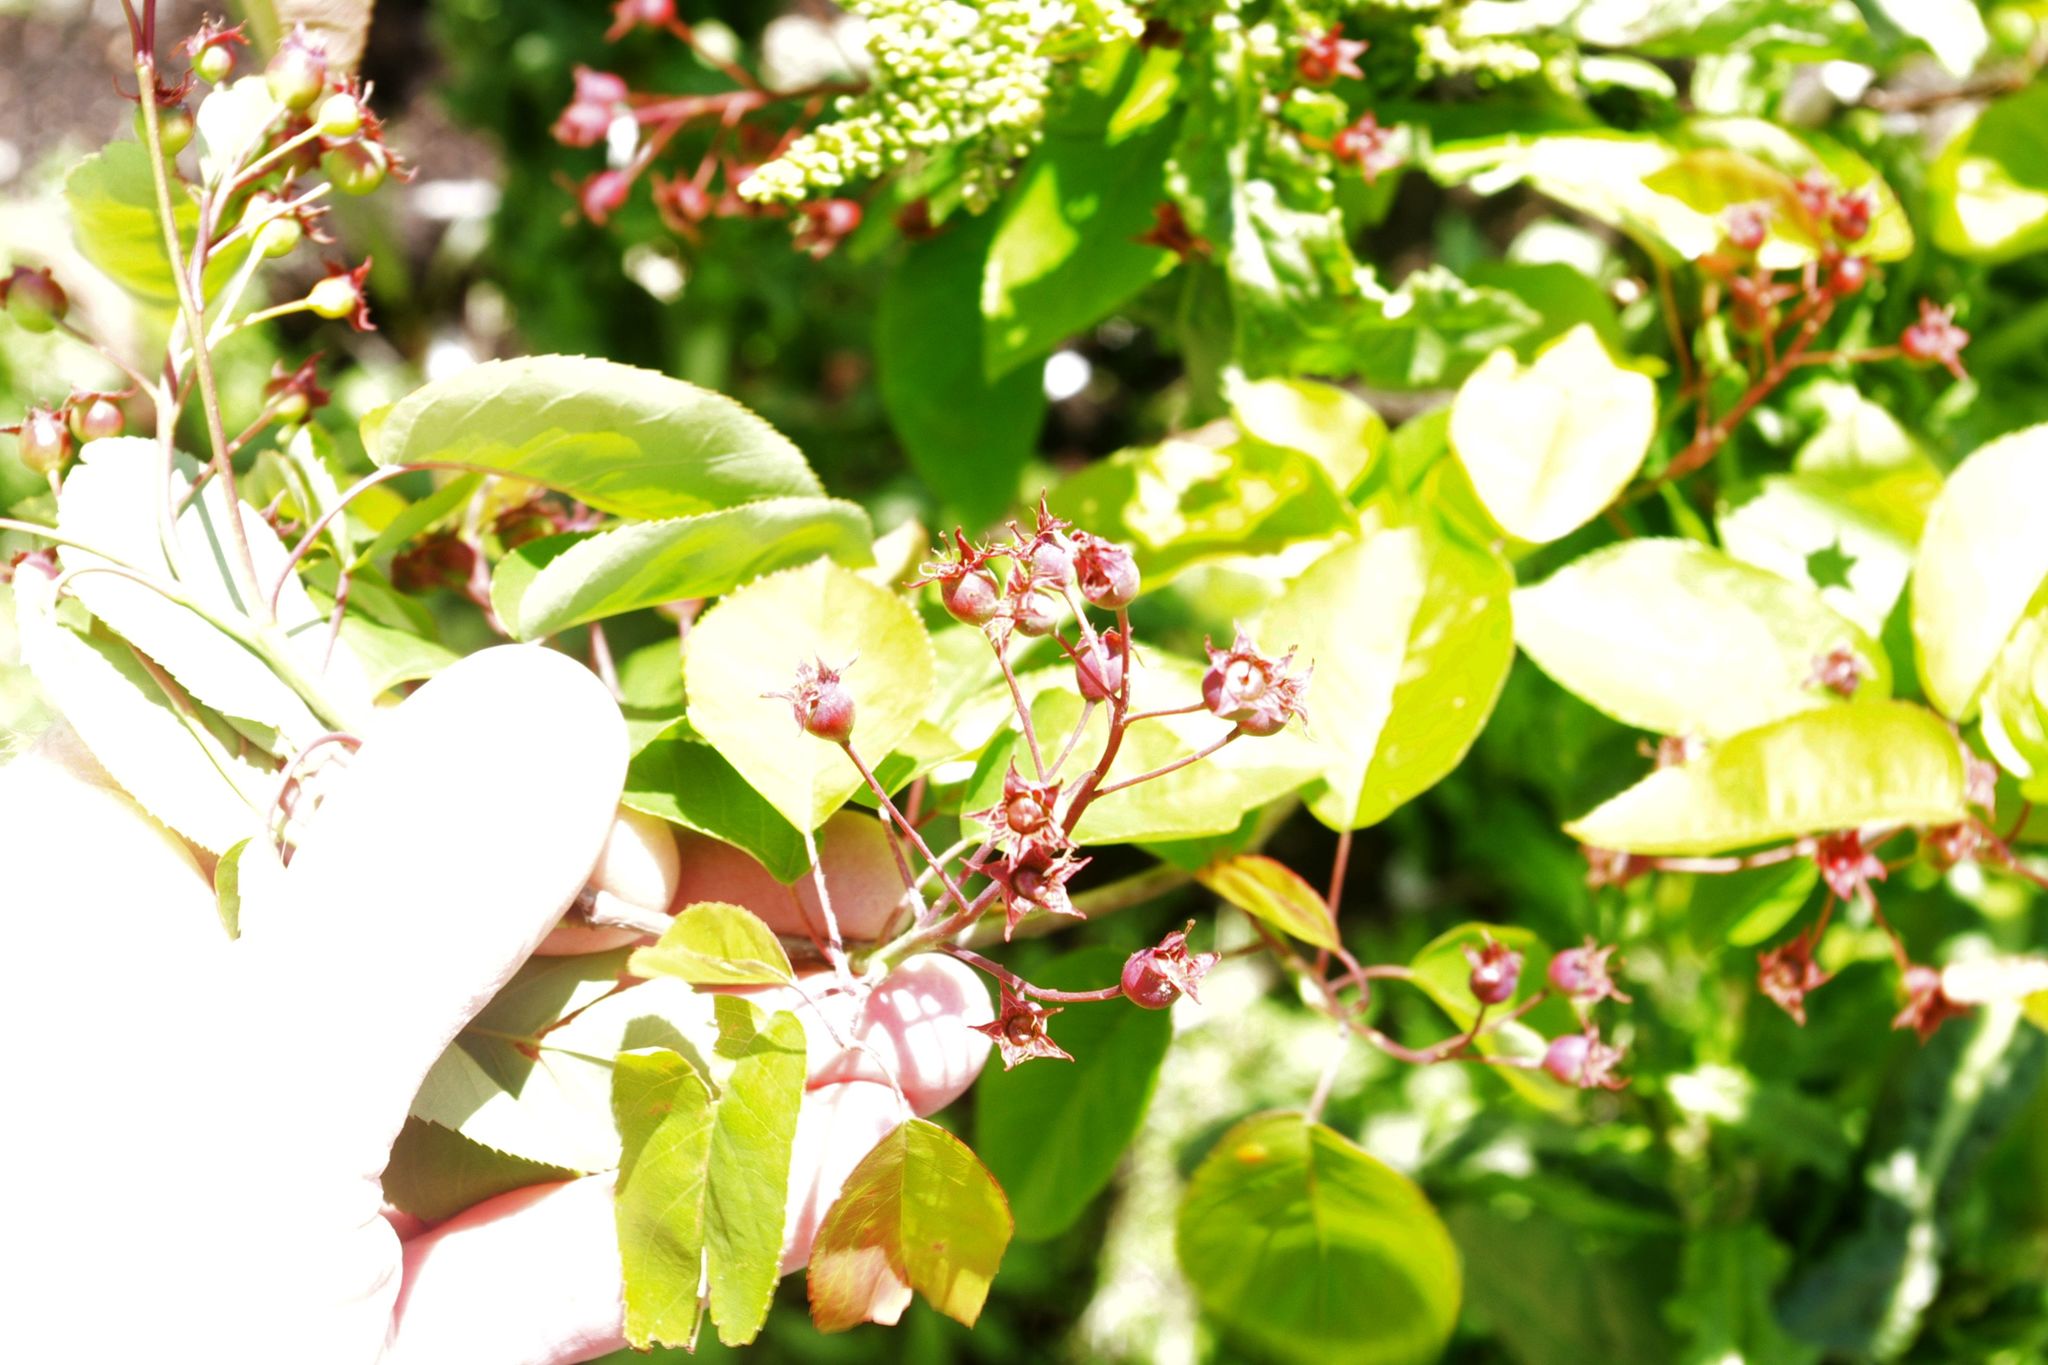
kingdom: Plantae
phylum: Tracheophyta
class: Magnoliopsida
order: Rosales
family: Rosaceae
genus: Amelanchier
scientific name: Amelanchier arborea
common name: Downy serviceberry
